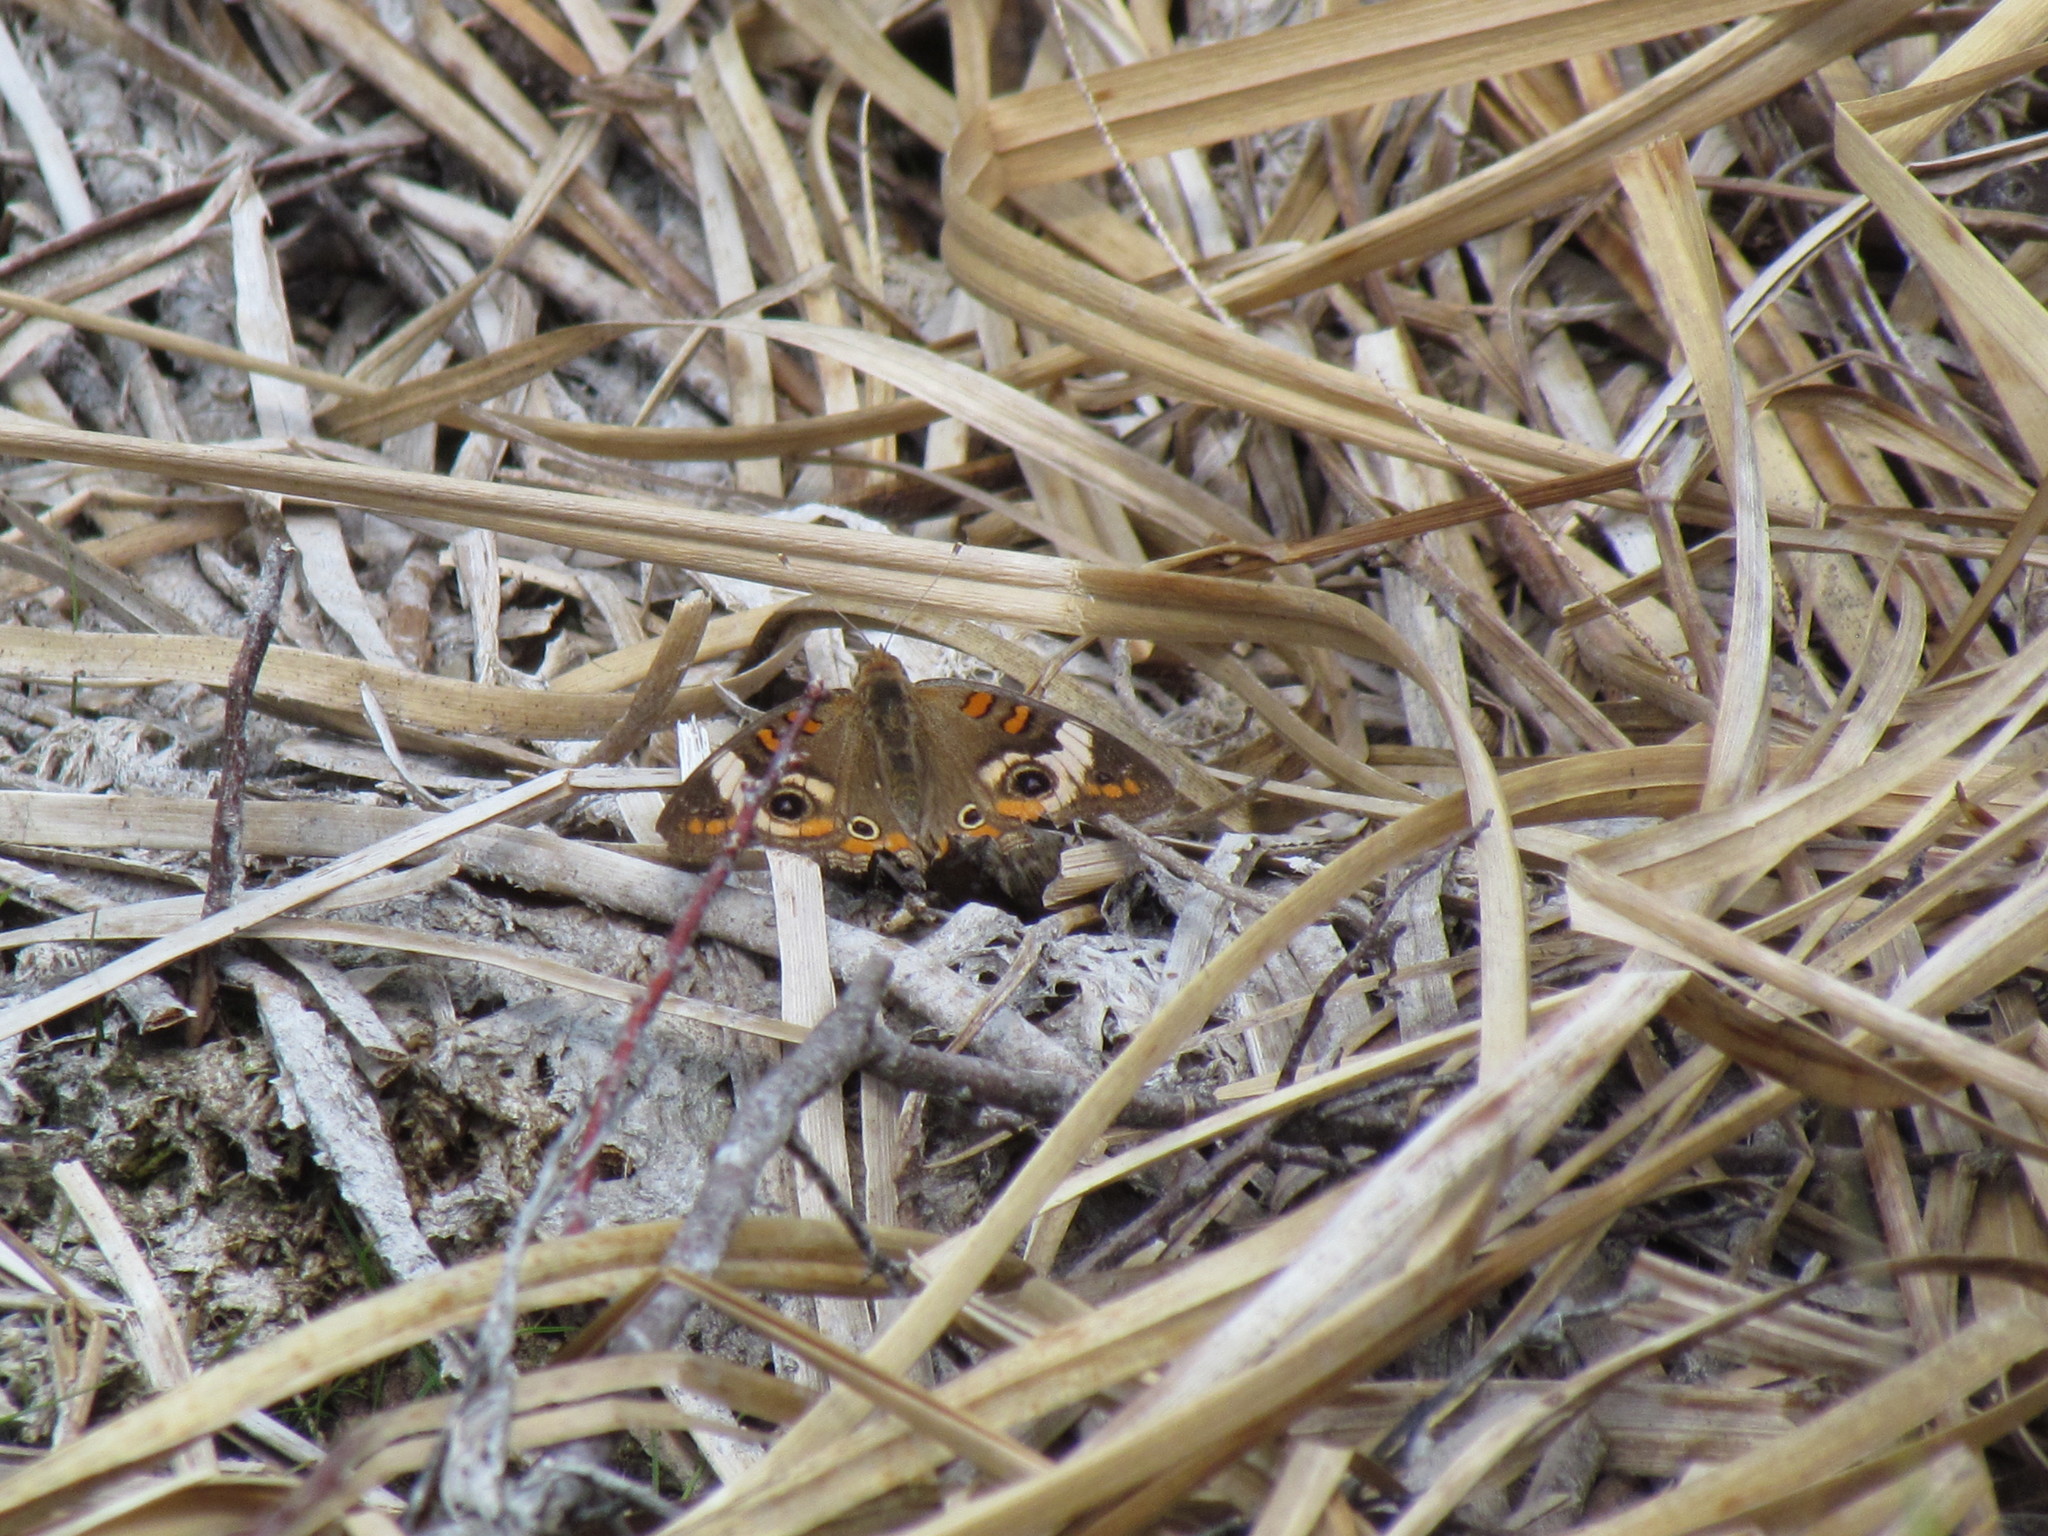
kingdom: Animalia
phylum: Arthropoda
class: Insecta
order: Lepidoptera
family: Nymphalidae
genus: Junonia
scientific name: Junonia coenia
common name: Common buckeye
